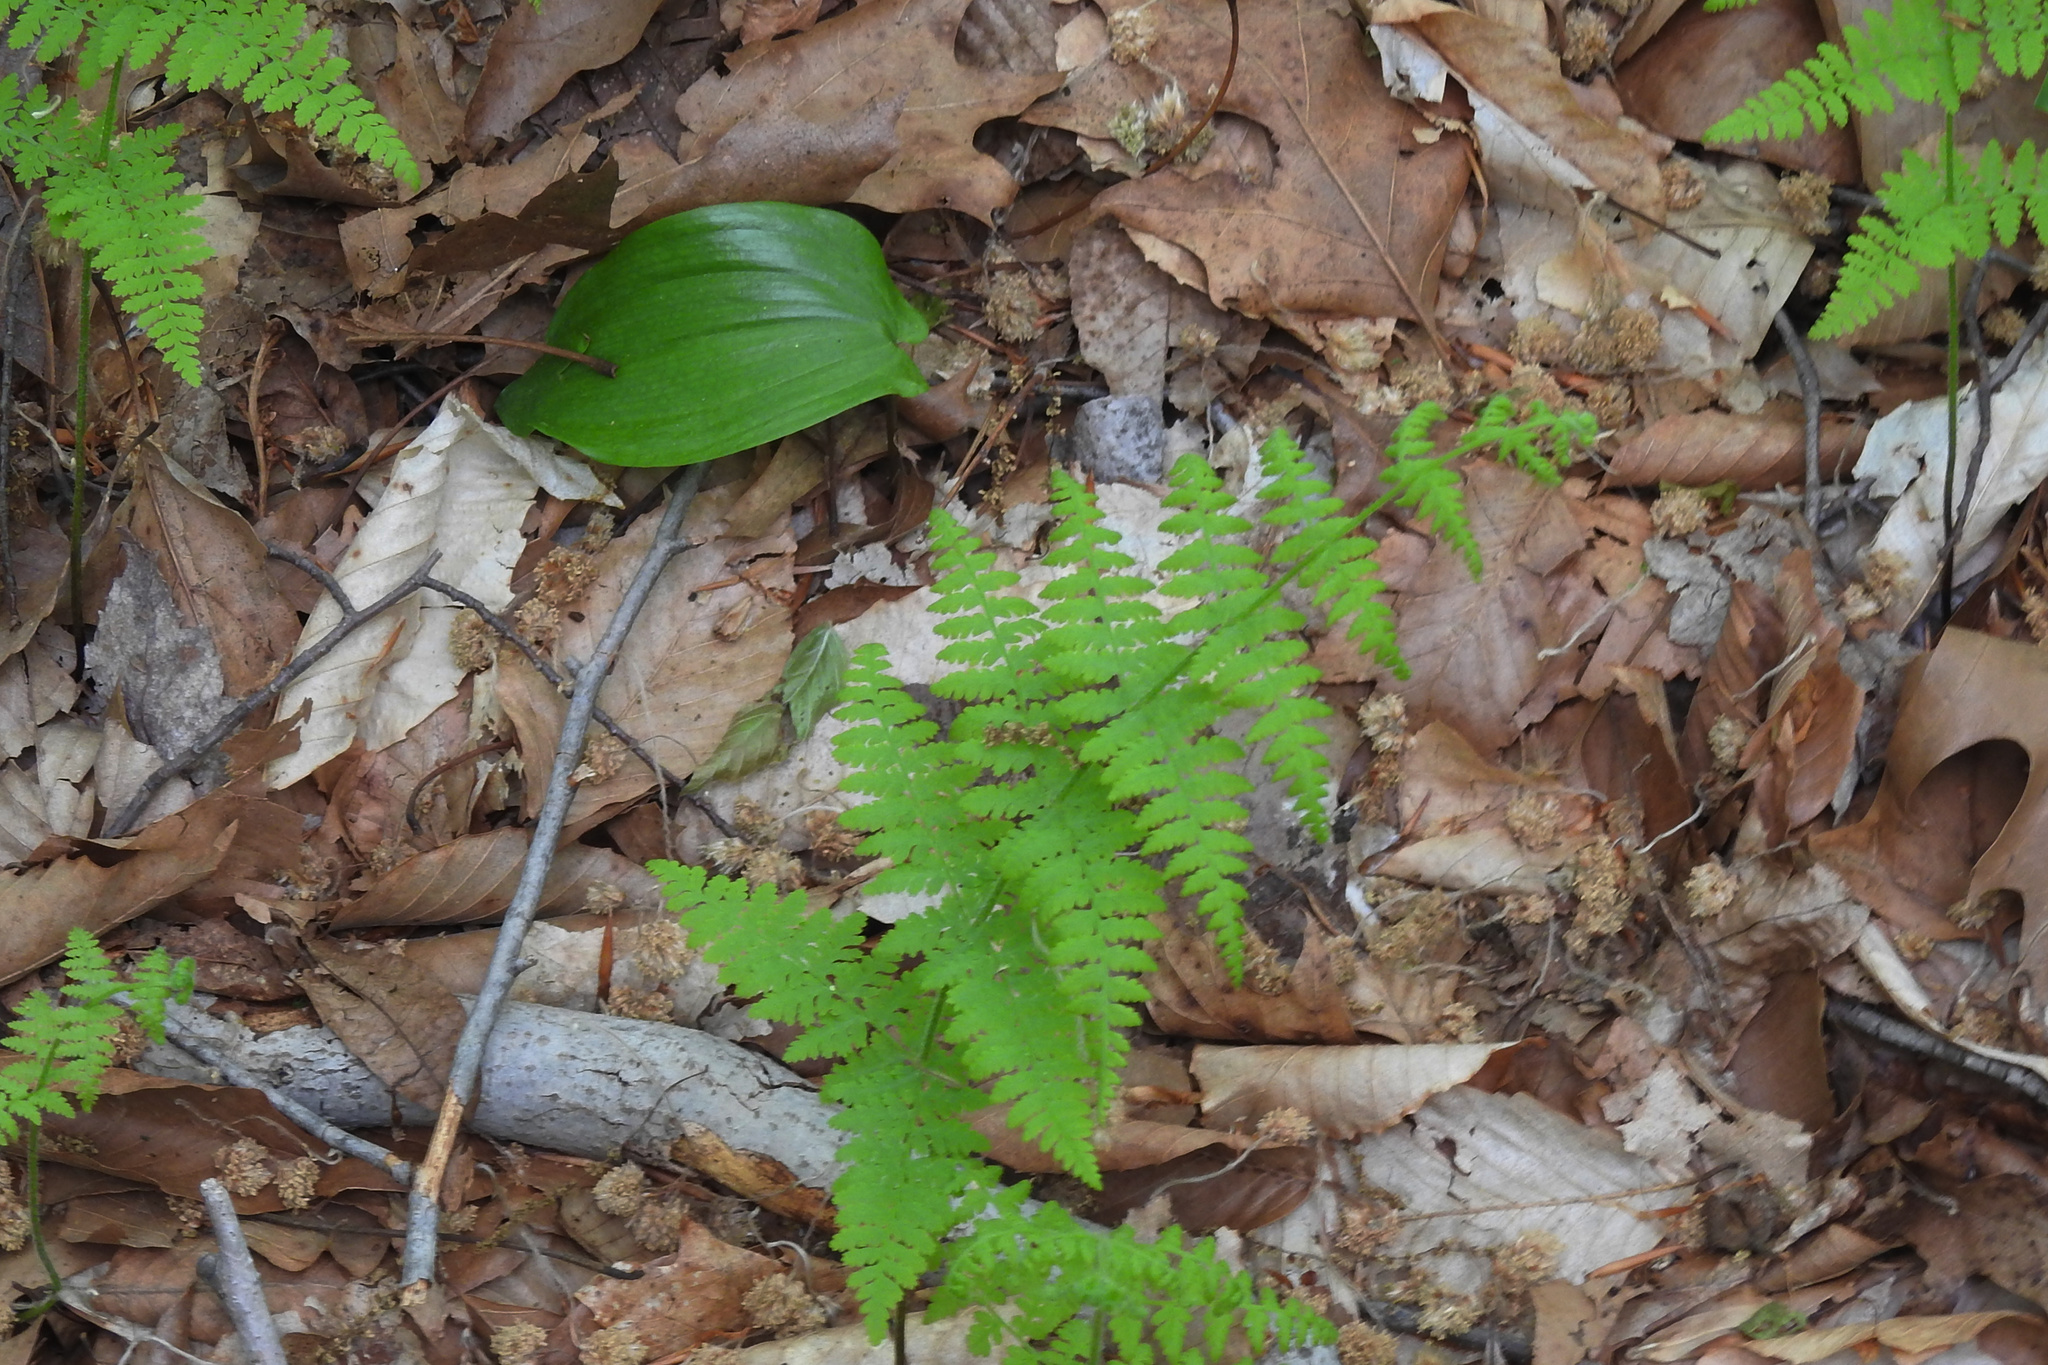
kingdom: Plantae
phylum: Tracheophyta
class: Polypodiopsida
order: Polypodiales
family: Dennstaedtiaceae
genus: Sitobolium
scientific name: Sitobolium punctilobum
